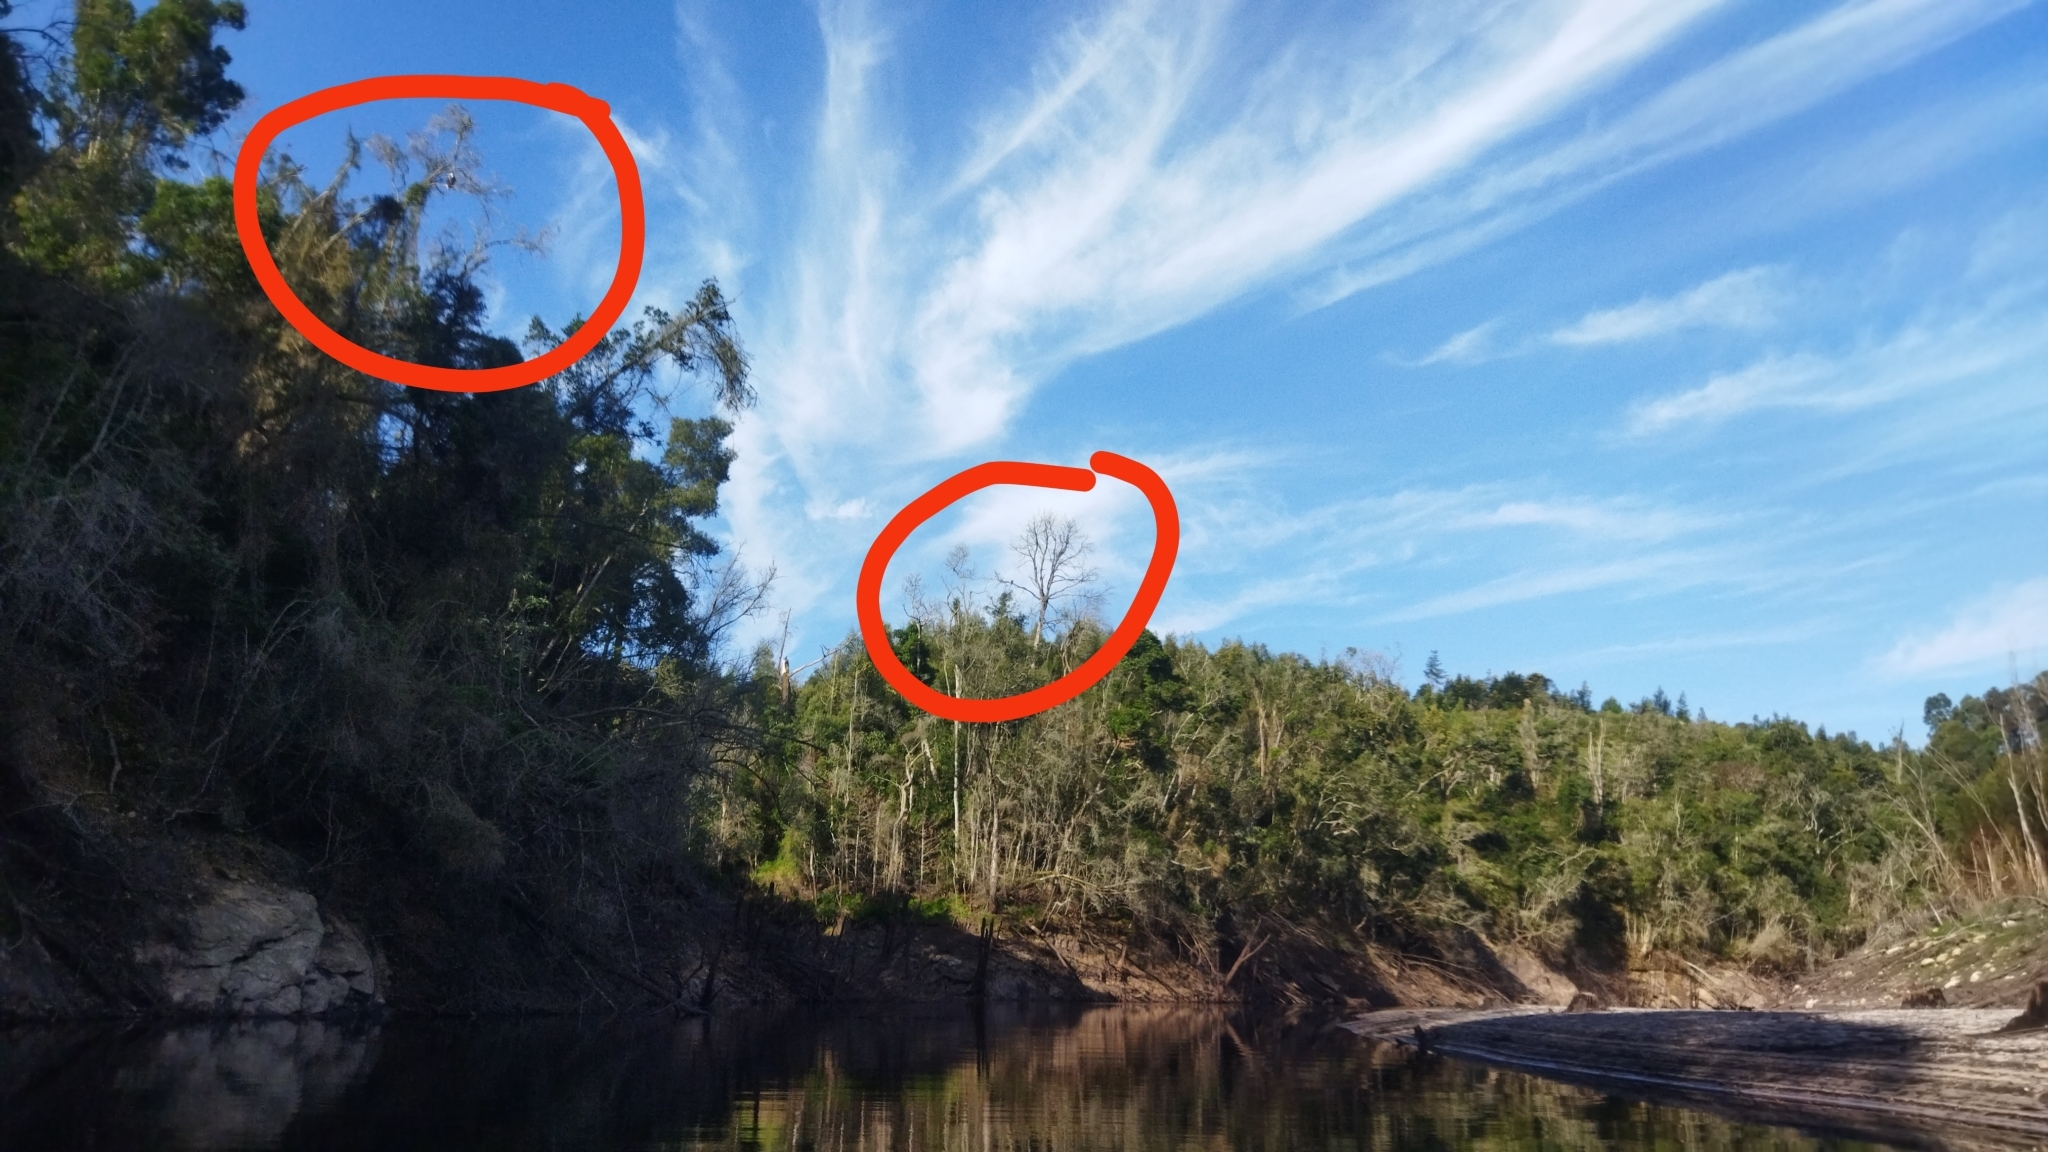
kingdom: Animalia
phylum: Chordata
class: Aves
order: Accipitriformes
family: Accipitridae
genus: Haliaeetus
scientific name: Haliaeetus vocifer
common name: African fish eagle
